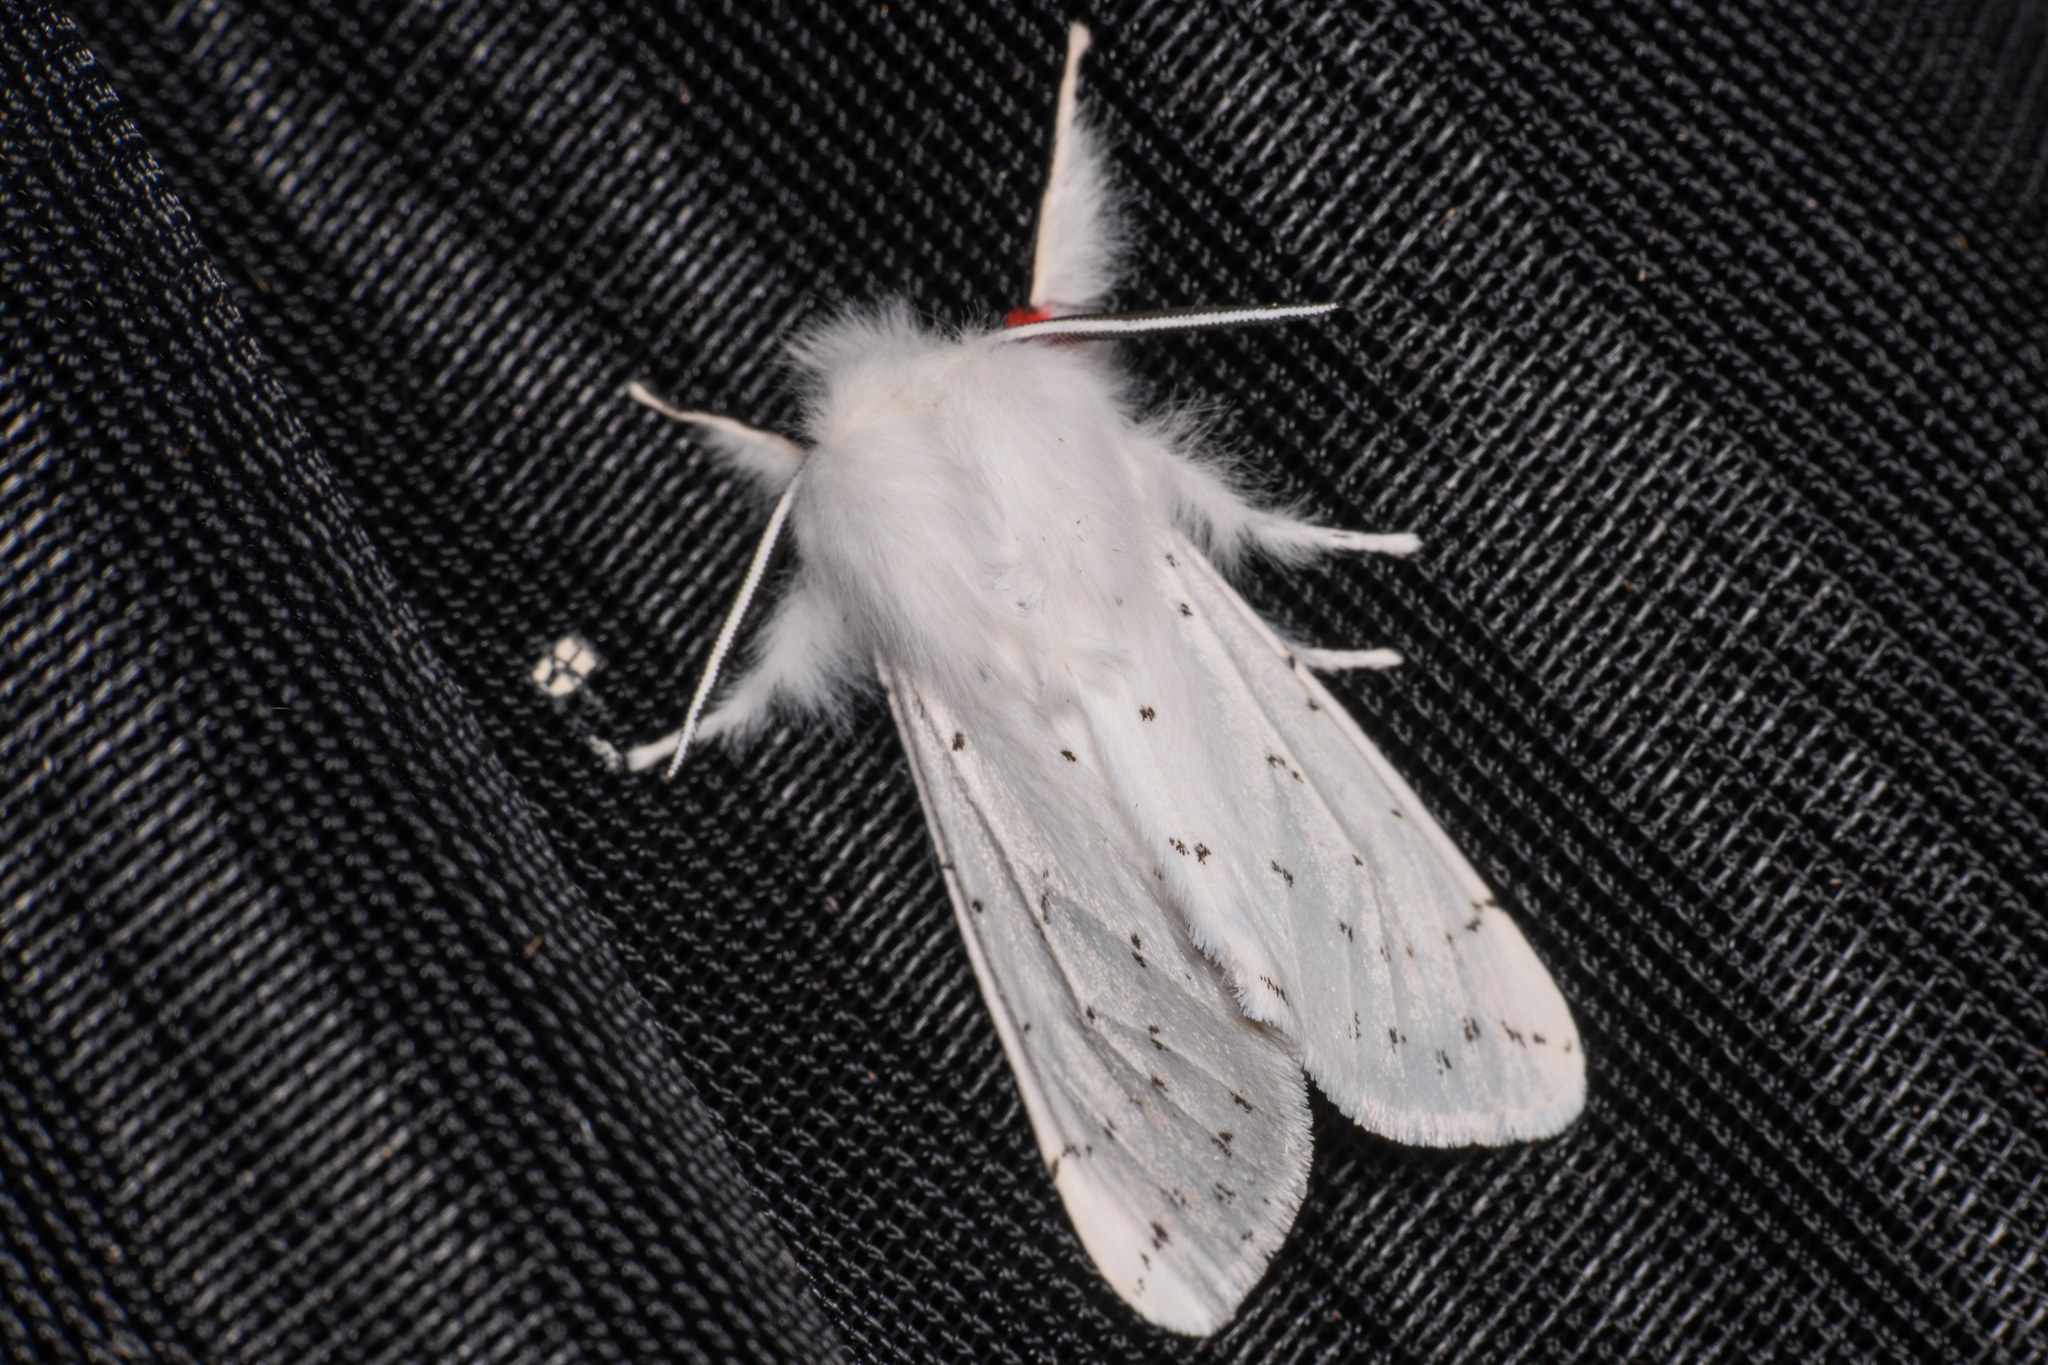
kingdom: Animalia
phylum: Arthropoda
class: Insecta
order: Lepidoptera
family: Erebidae
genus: Spilosoma
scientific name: Spilosoma vestalis
